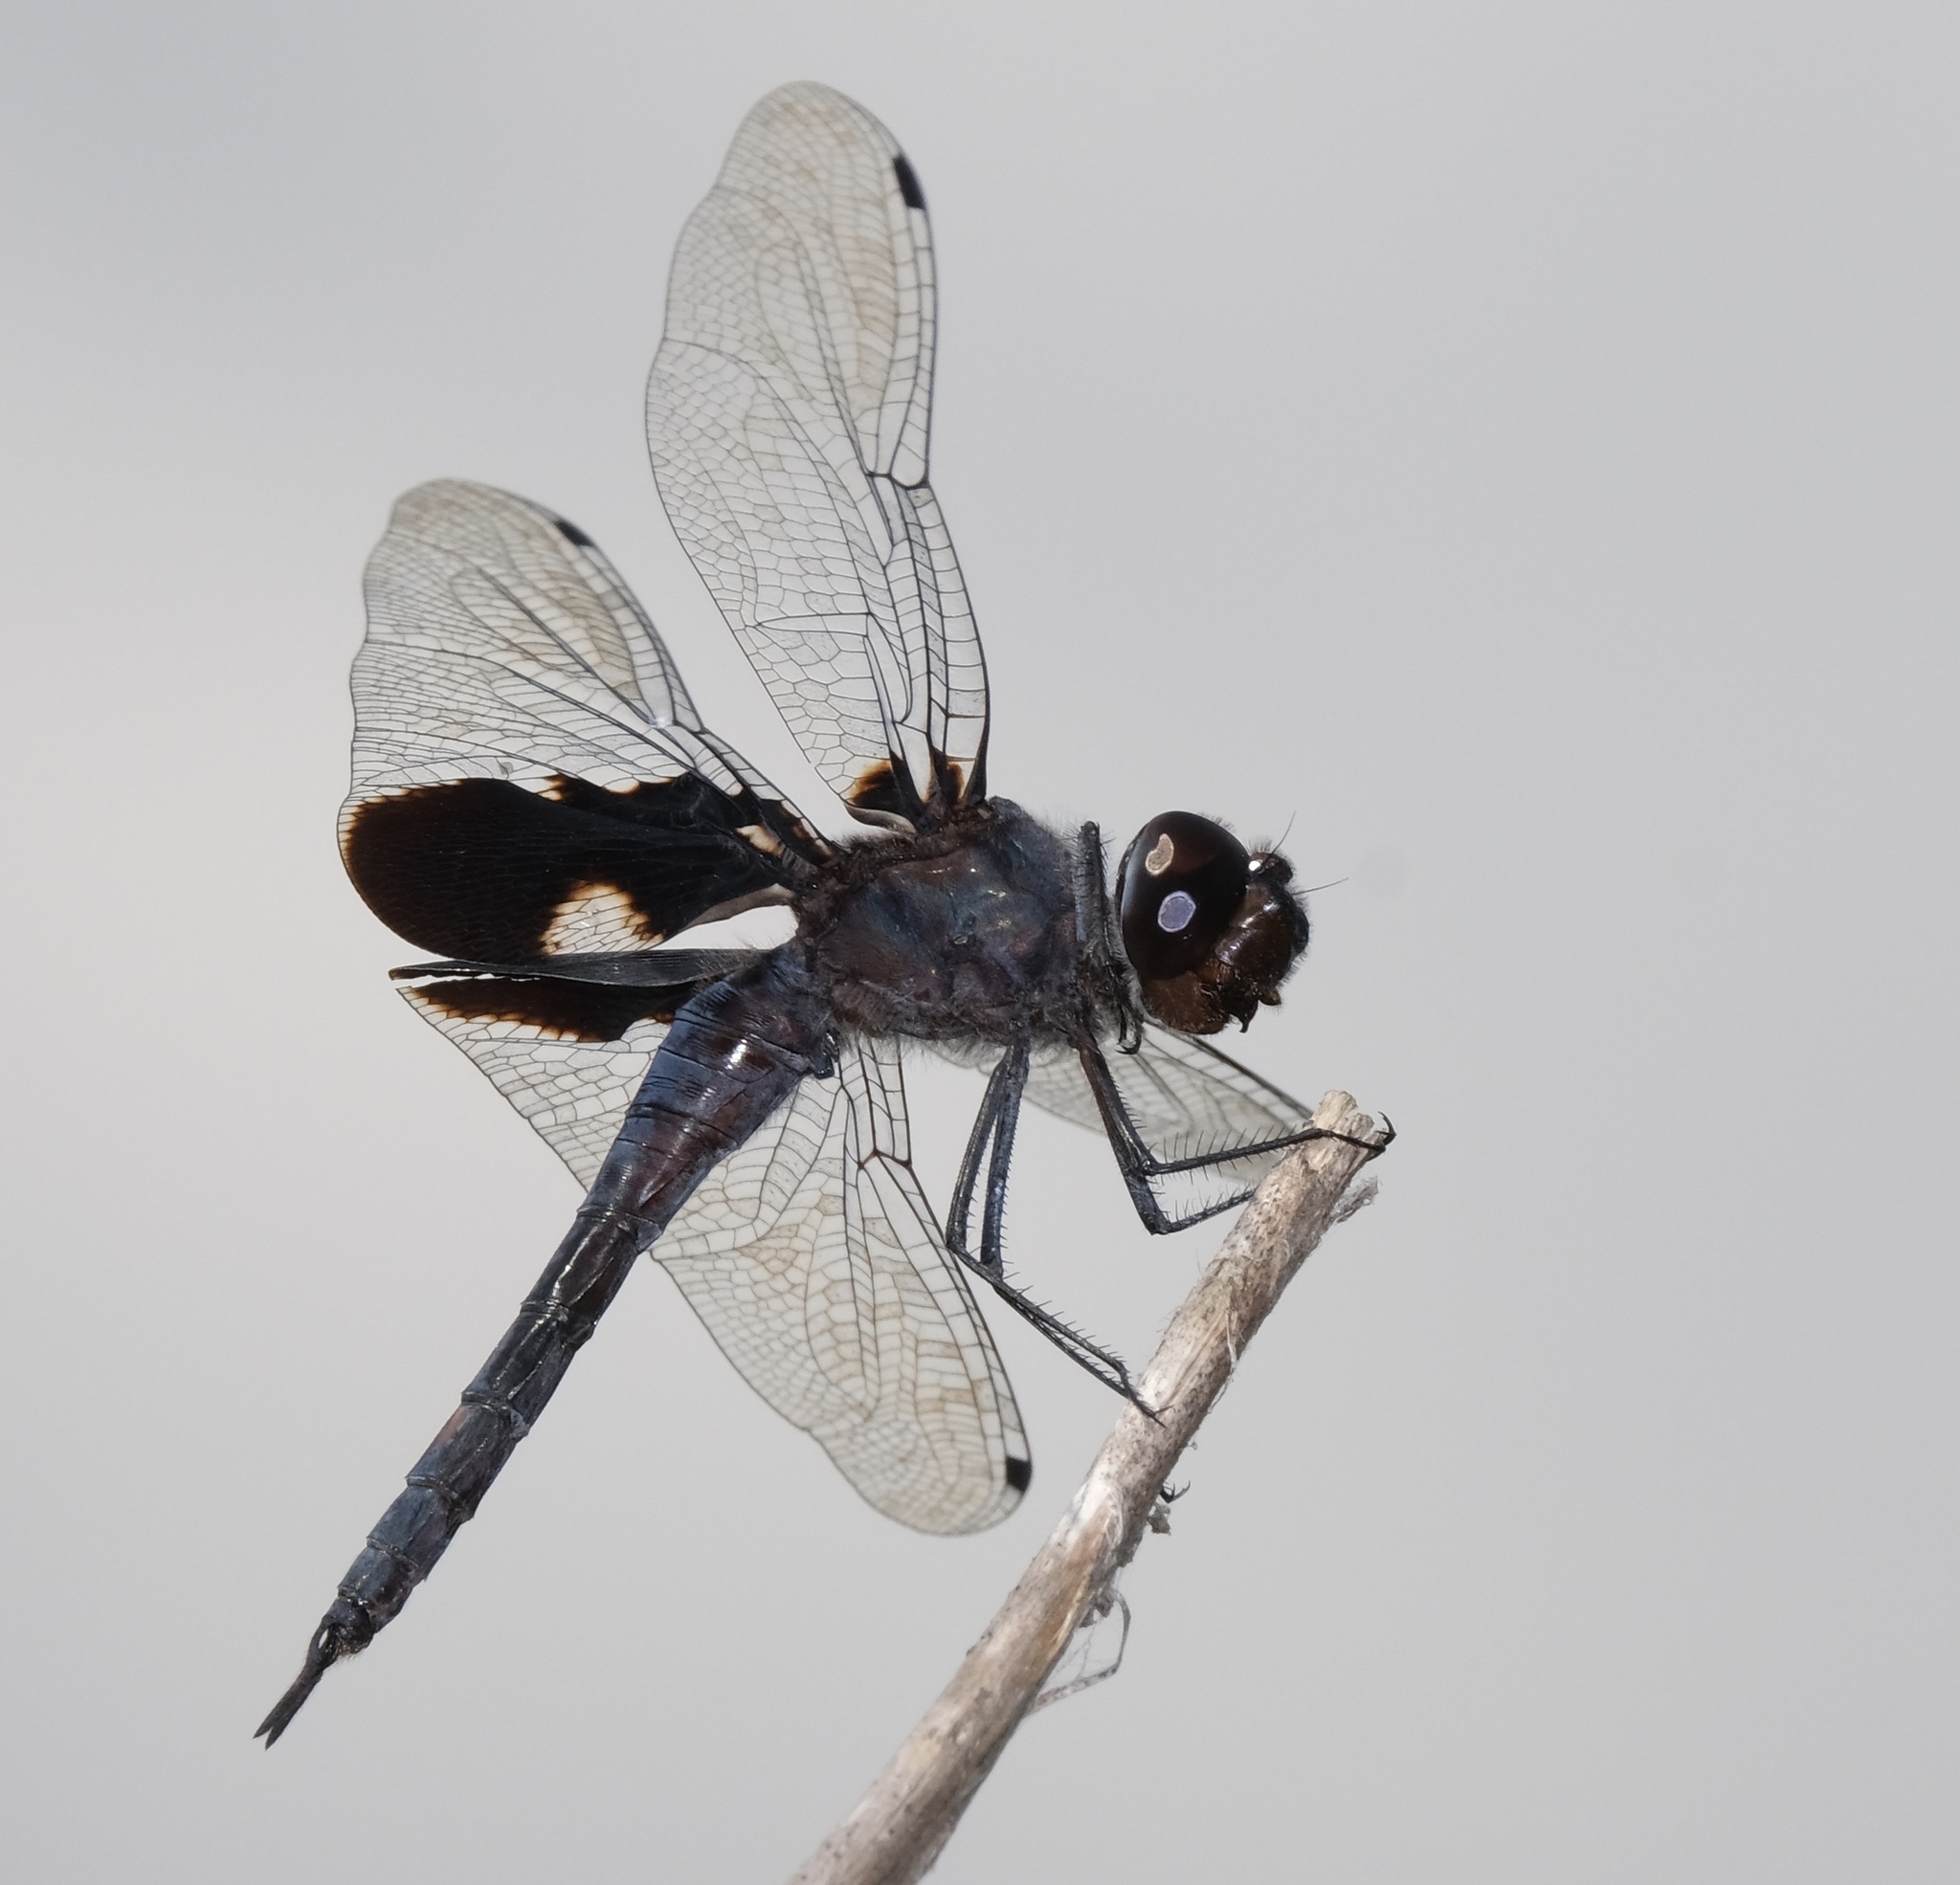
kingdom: Animalia
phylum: Arthropoda
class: Insecta
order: Odonata
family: Libellulidae
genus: Tramea
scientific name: Tramea lacerata
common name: Black saddlebags
